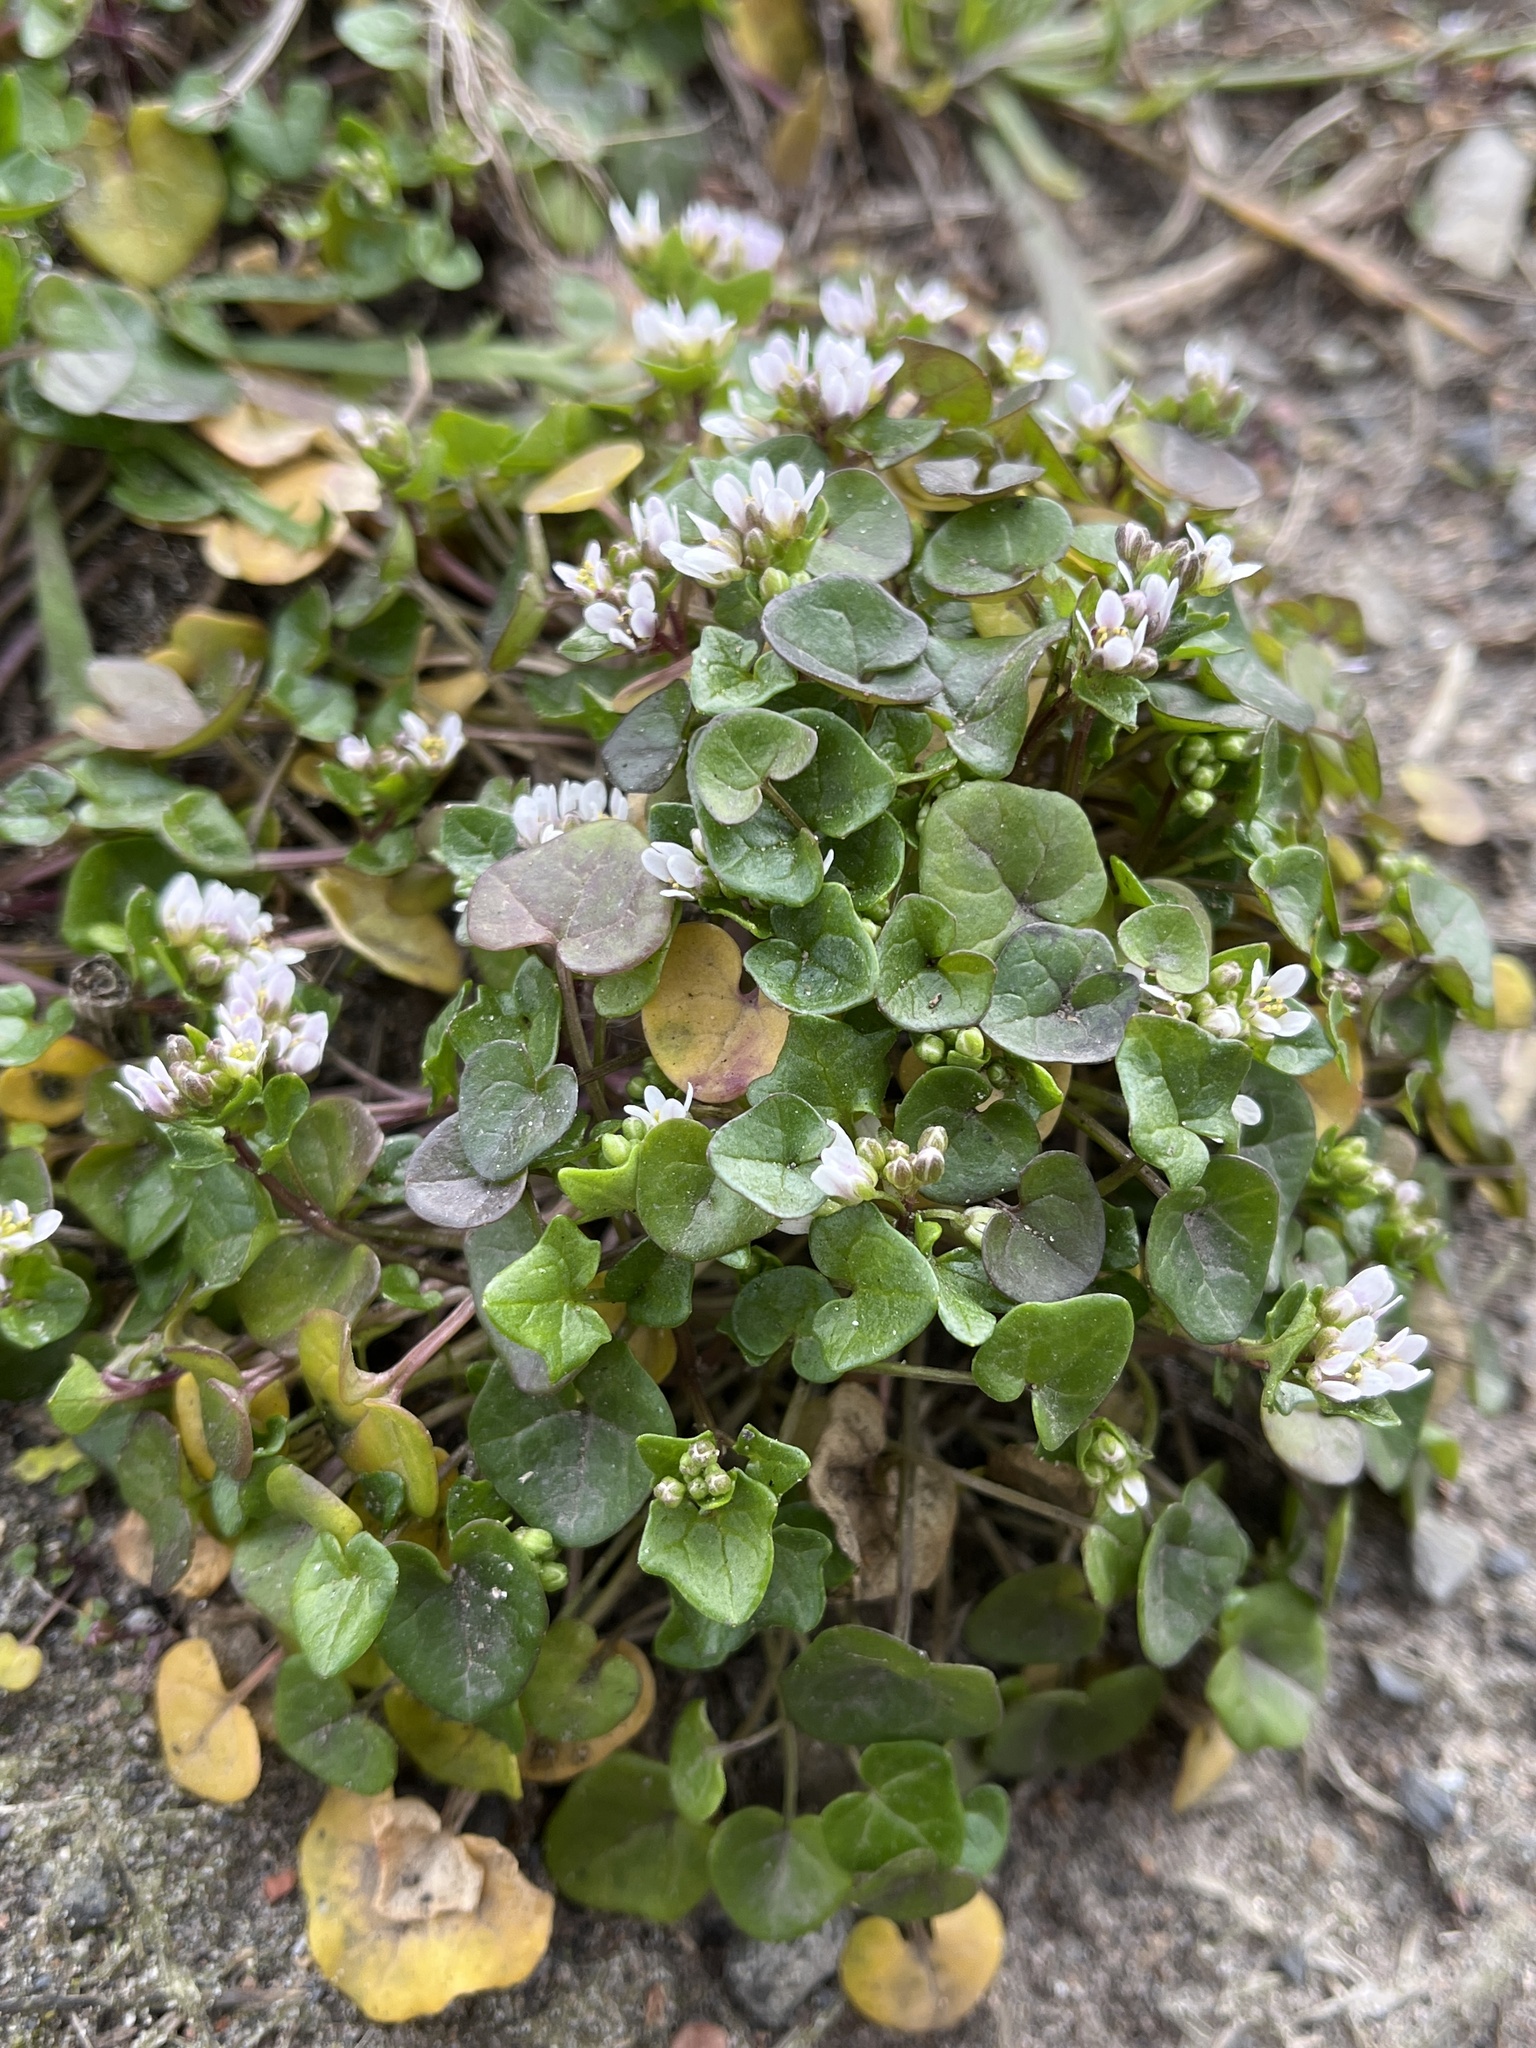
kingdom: Plantae
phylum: Tracheophyta
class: Magnoliopsida
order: Brassicales
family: Brassicaceae
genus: Cochlearia
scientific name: Cochlearia danica
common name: Early scurvygrass
